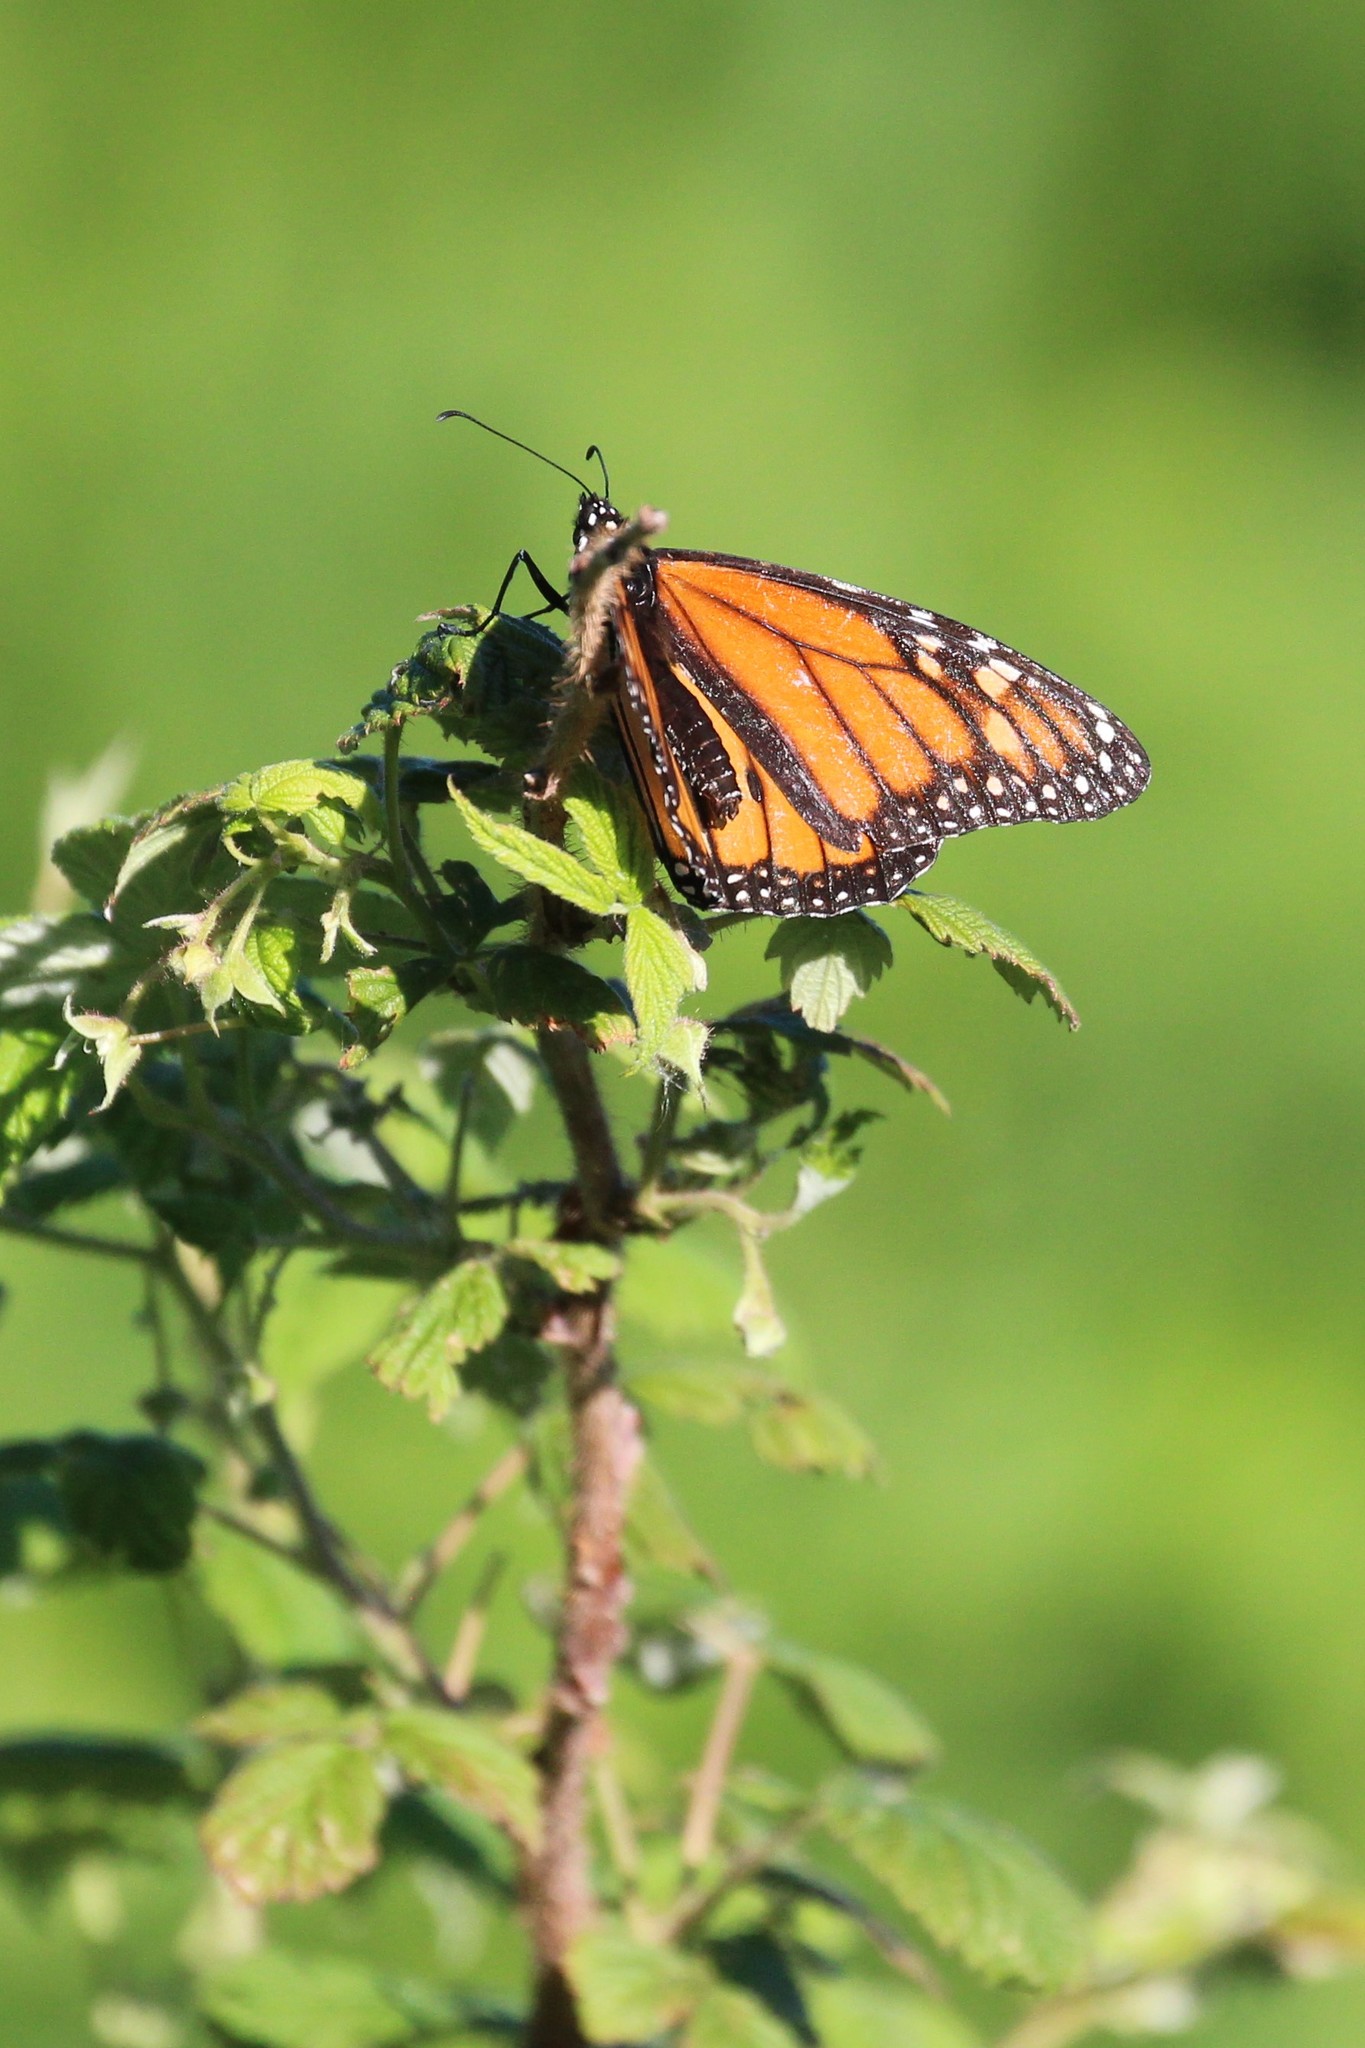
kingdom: Animalia
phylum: Arthropoda
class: Insecta
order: Lepidoptera
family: Nymphalidae
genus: Danaus
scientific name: Danaus plexippus
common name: Monarch
